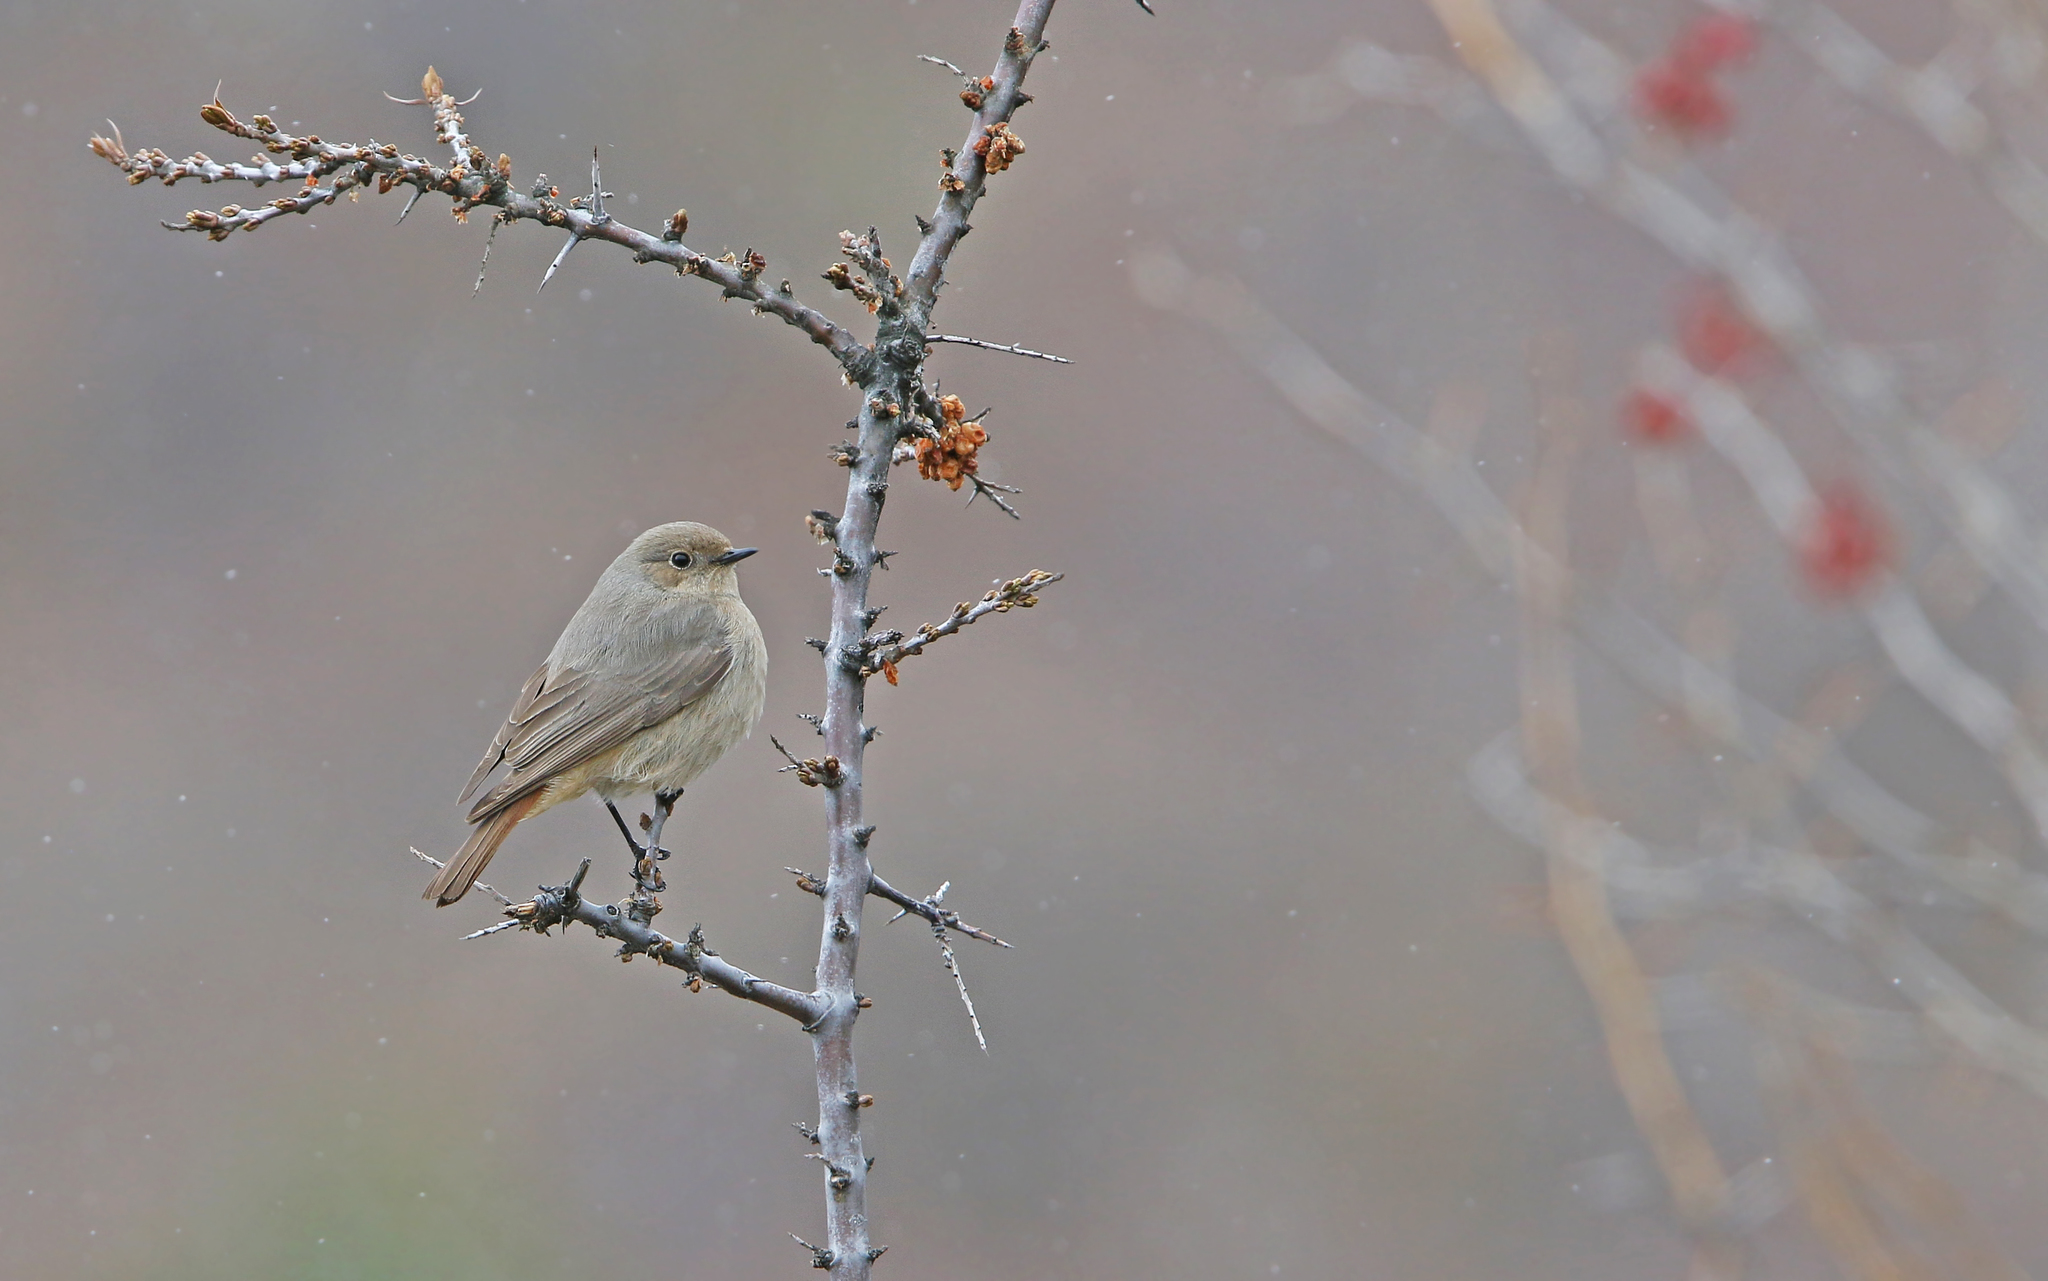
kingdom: Animalia
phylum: Chordata
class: Aves
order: Passeriformes
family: Muscicapidae
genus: Phoenicurus
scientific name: Phoenicurus erythrogastrus
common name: Güldenstädt's redstart
